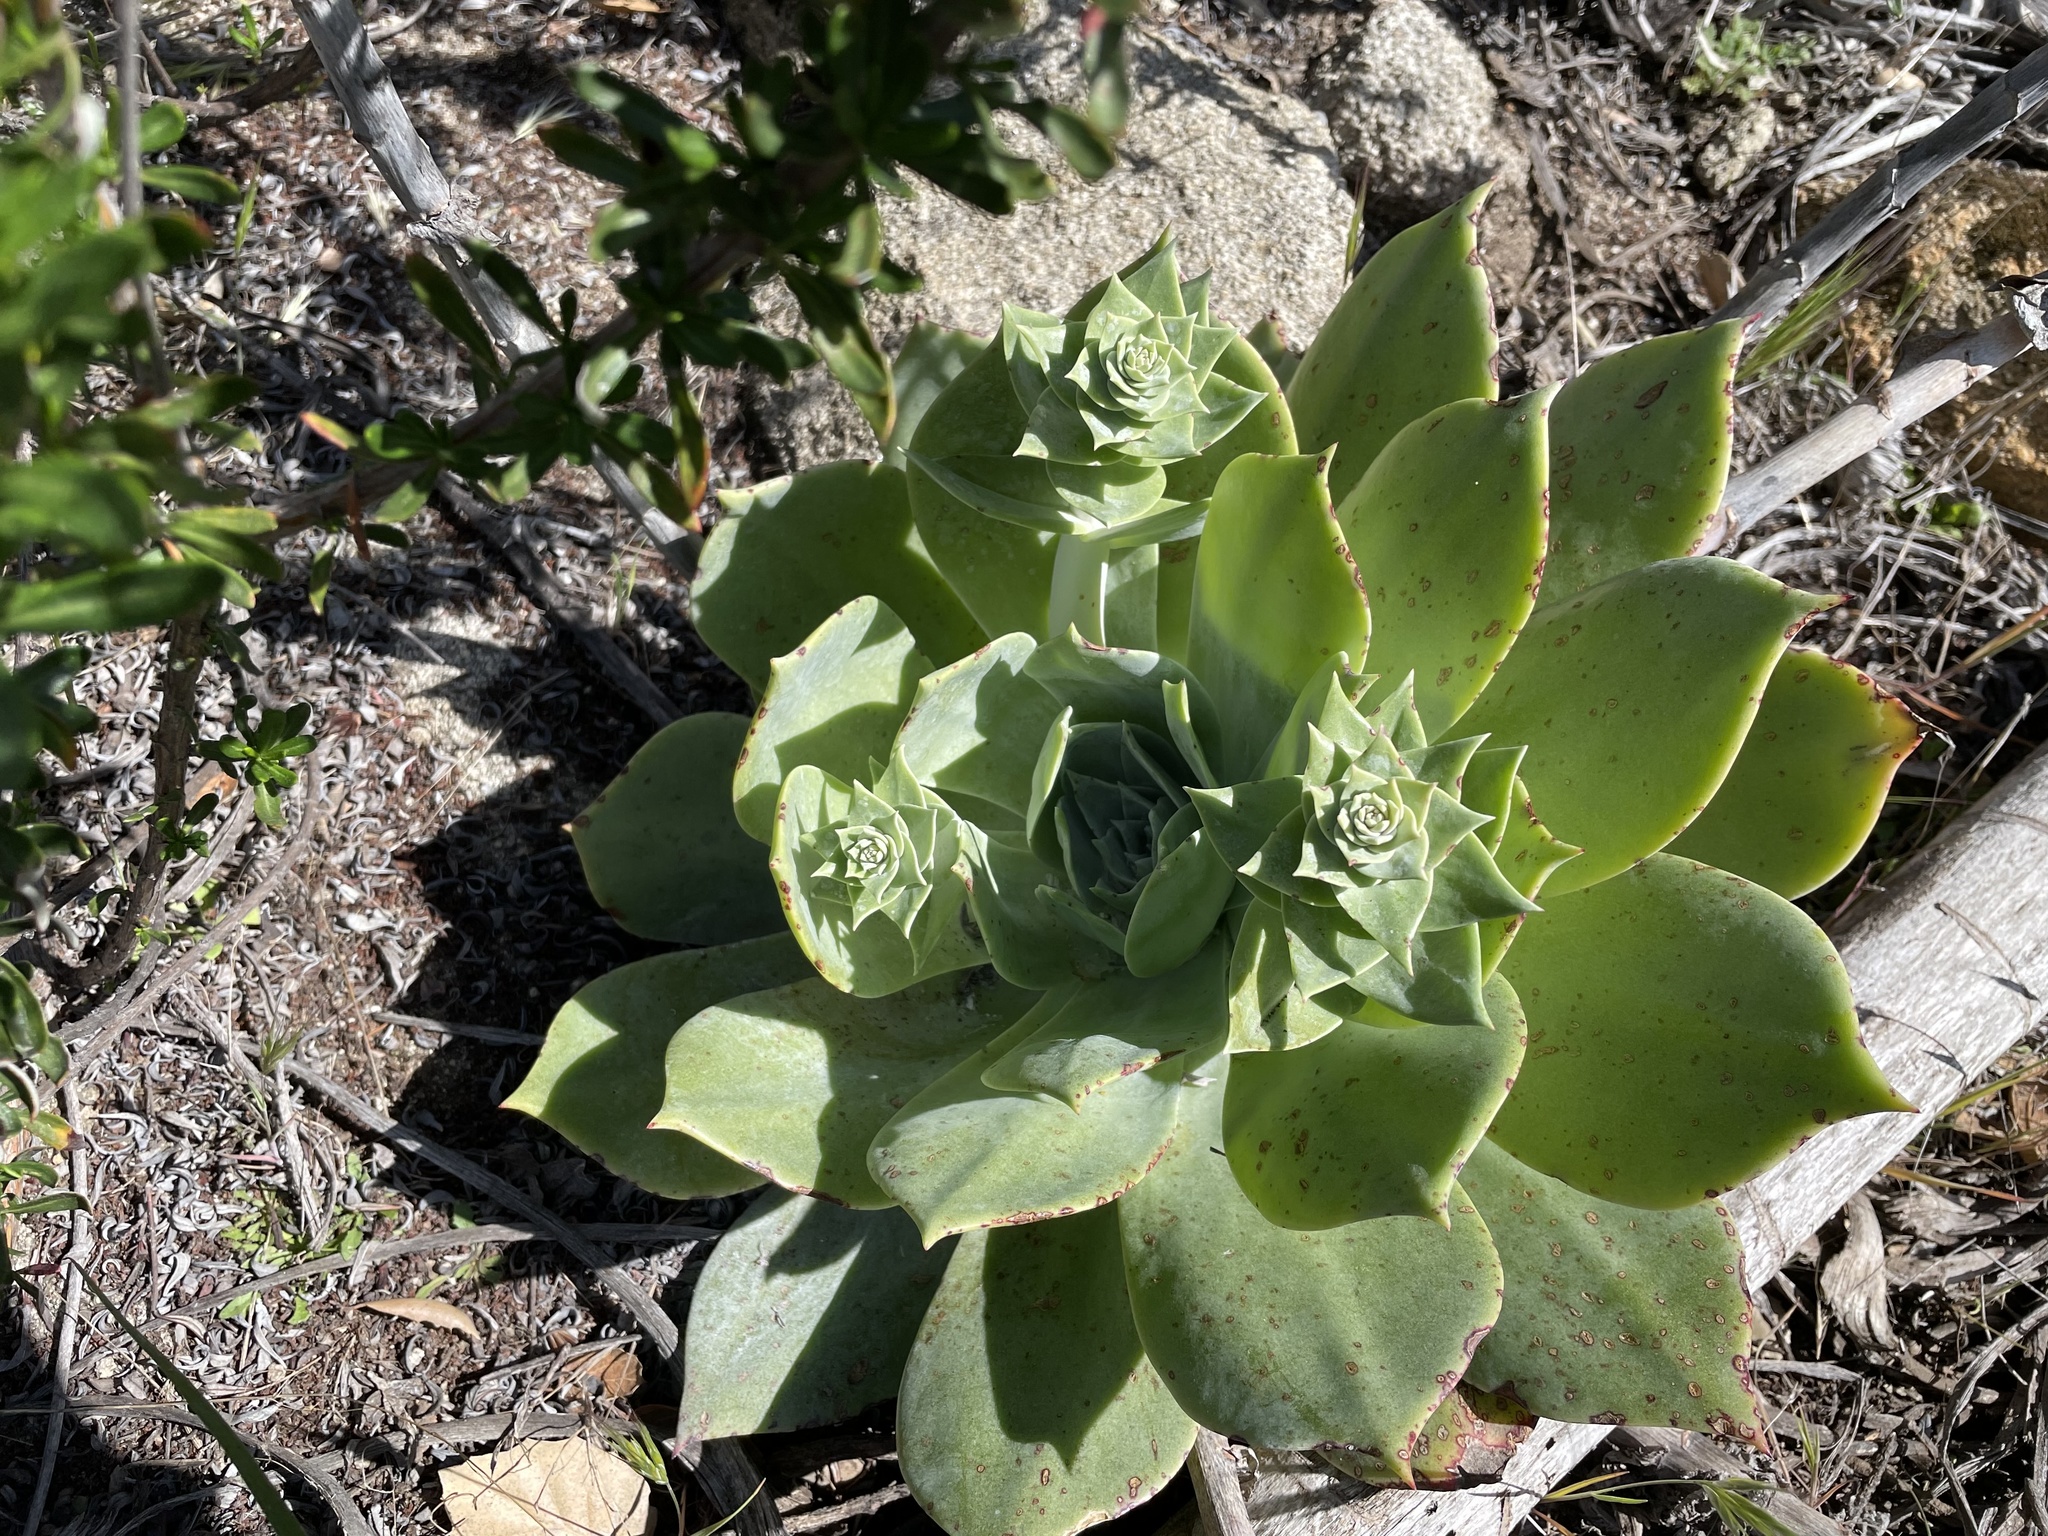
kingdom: Plantae
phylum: Tracheophyta
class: Magnoliopsida
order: Saxifragales
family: Crassulaceae
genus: Dudleya
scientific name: Dudleya pulverulenta
